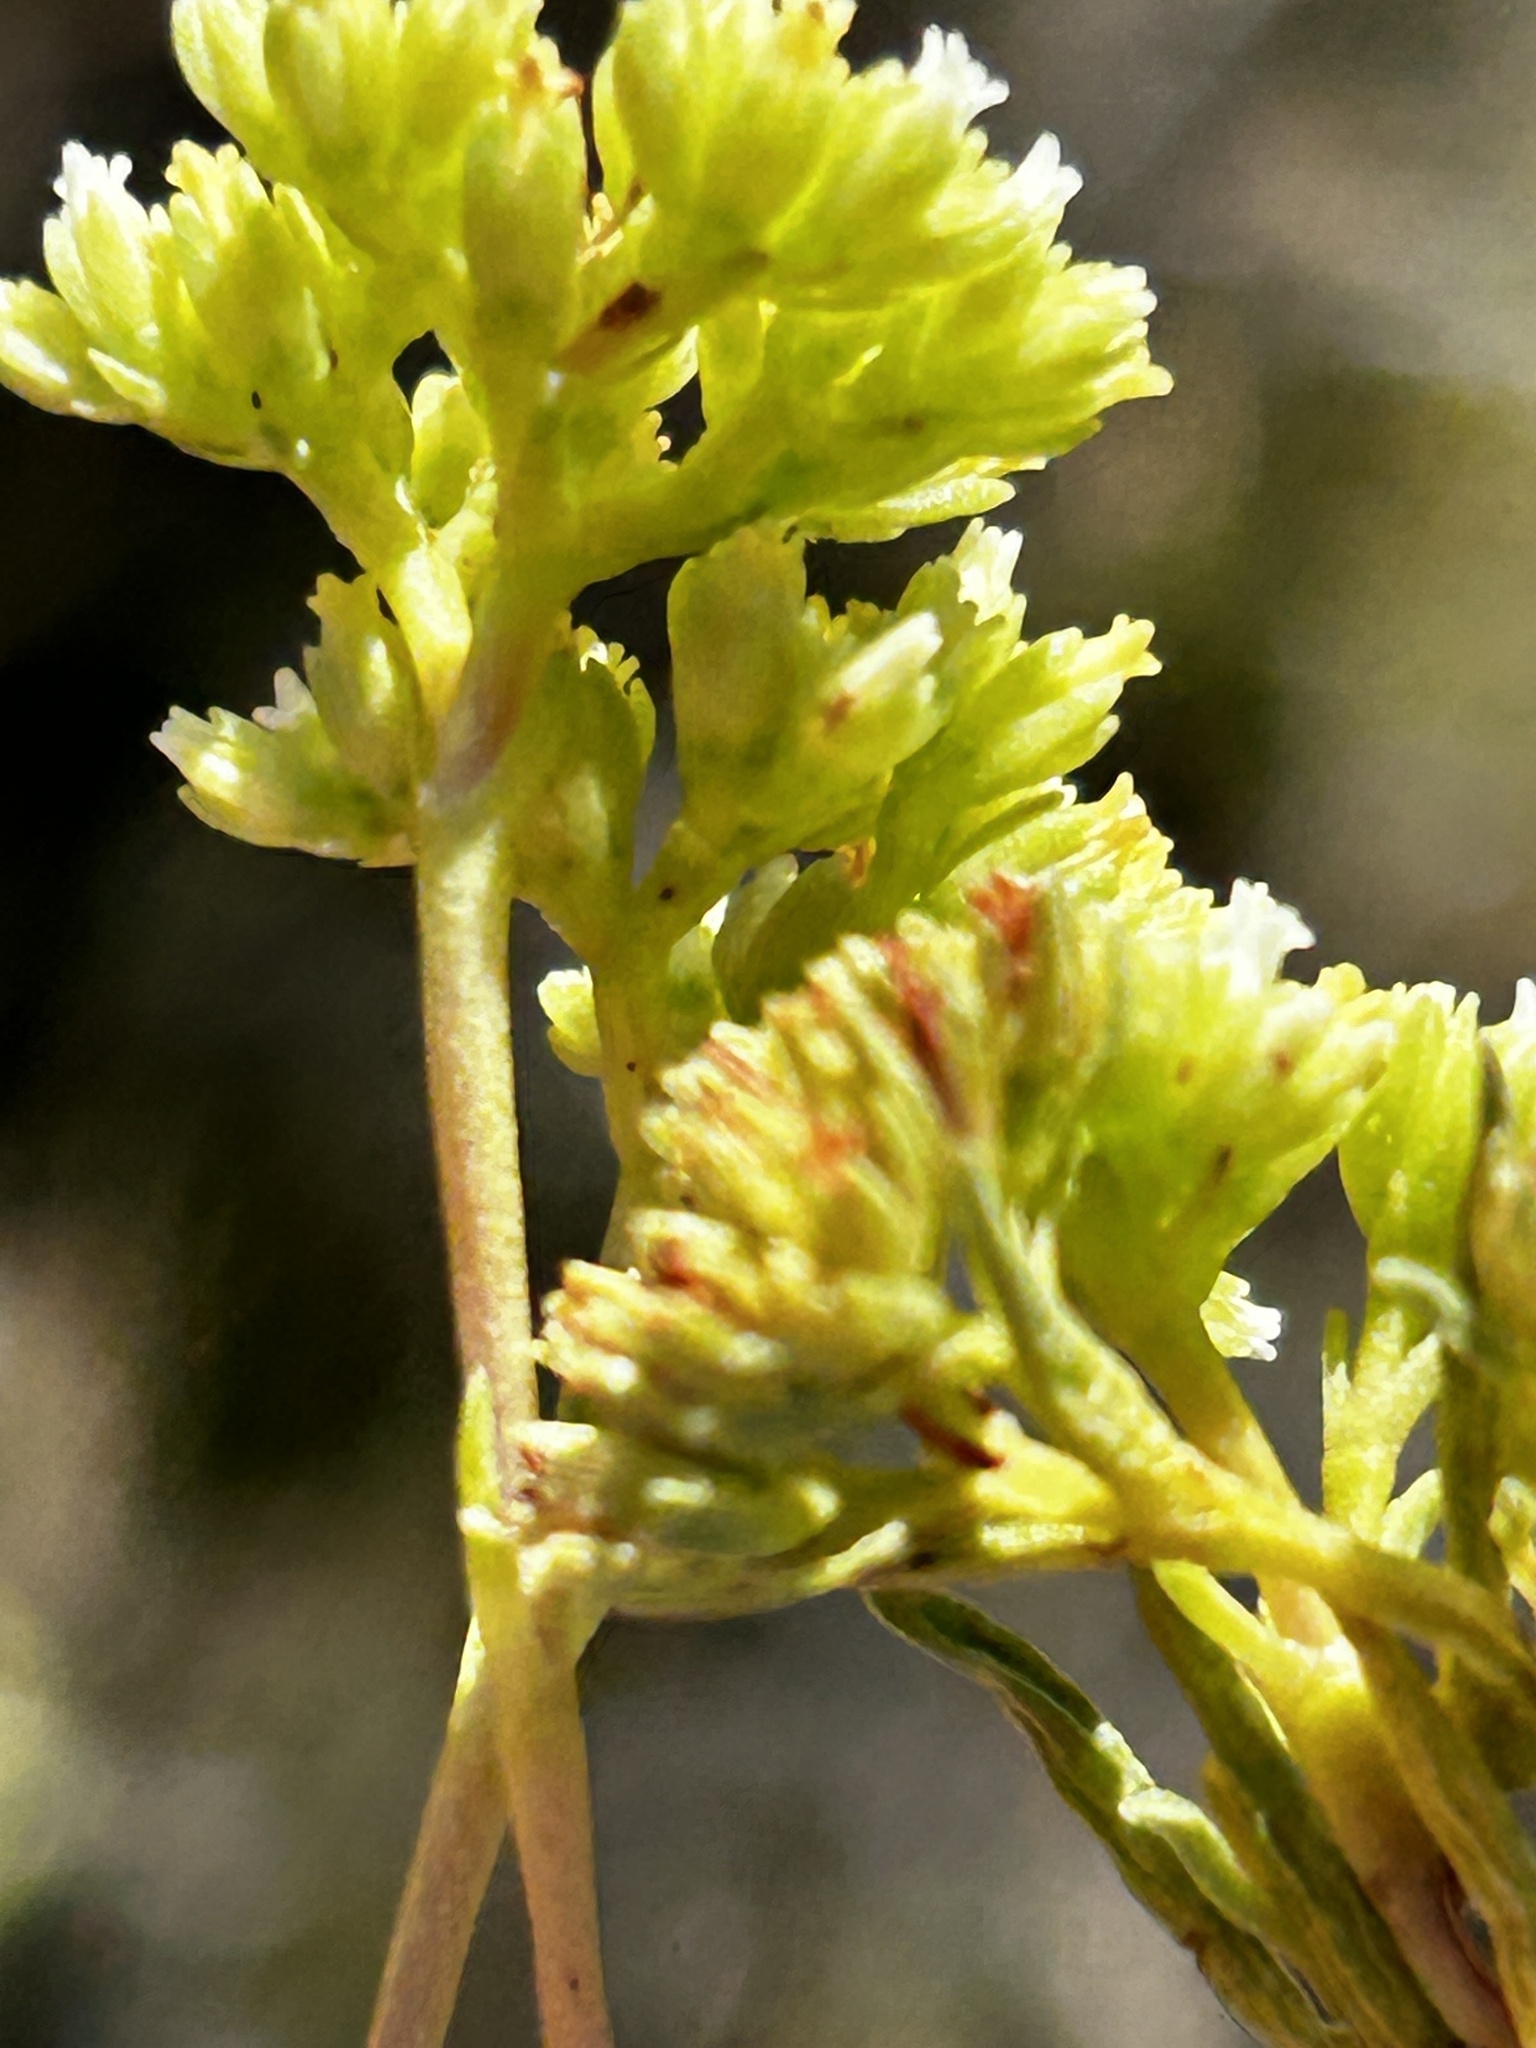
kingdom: Plantae
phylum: Tracheophyta
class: Magnoliopsida
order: Saxifragales
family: Crassulaceae
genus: Crassula
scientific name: Crassula subulata
